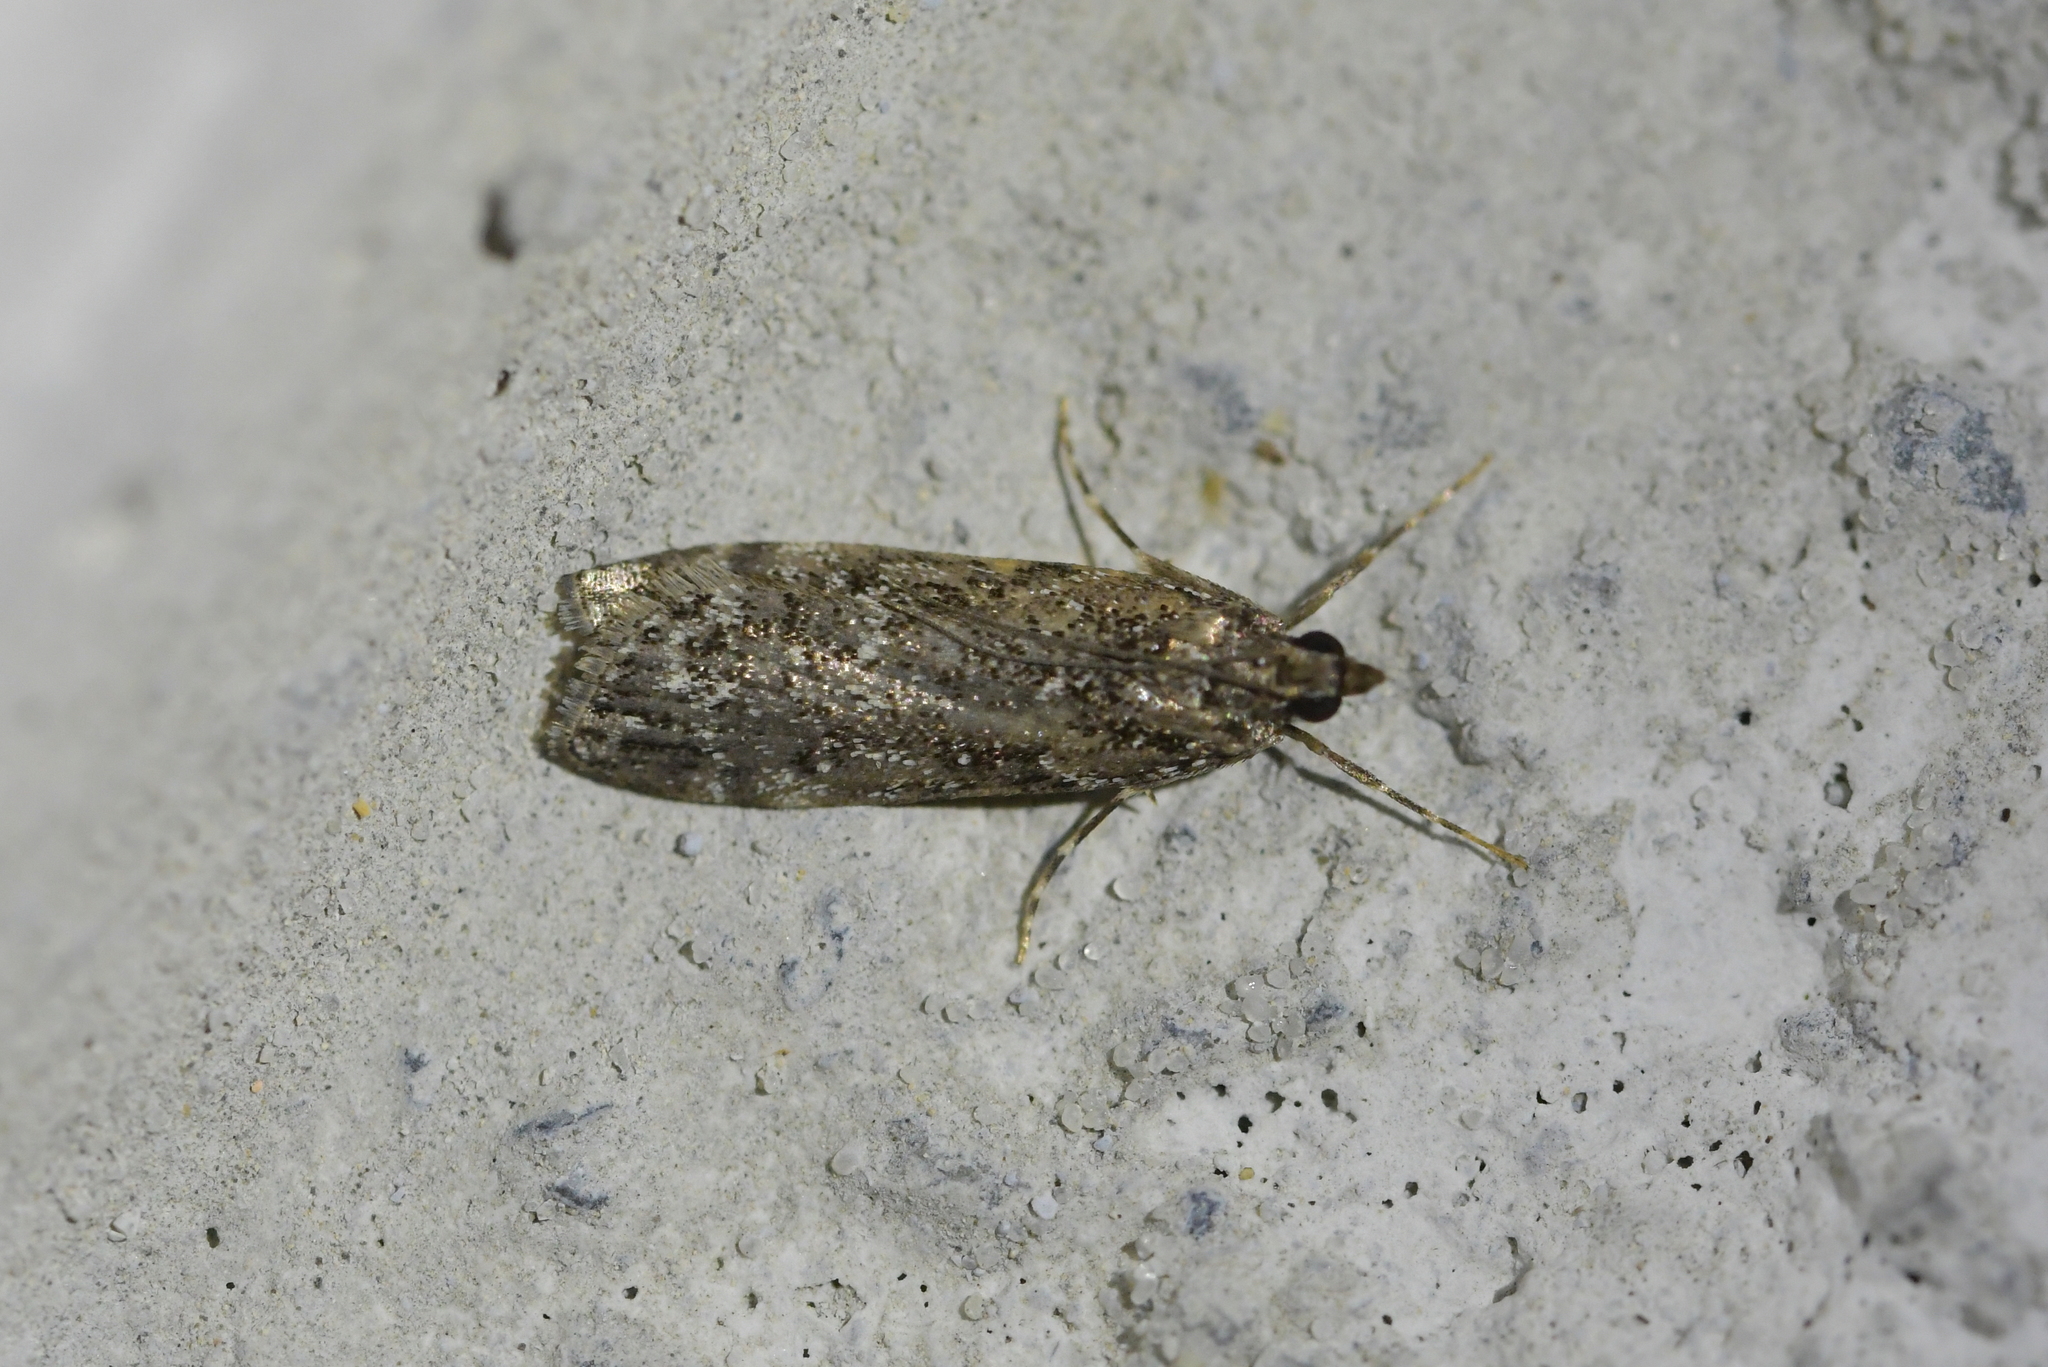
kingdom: Animalia
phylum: Arthropoda
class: Insecta
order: Lepidoptera
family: Crambidae
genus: Eudonia
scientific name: Eudonia philerga
